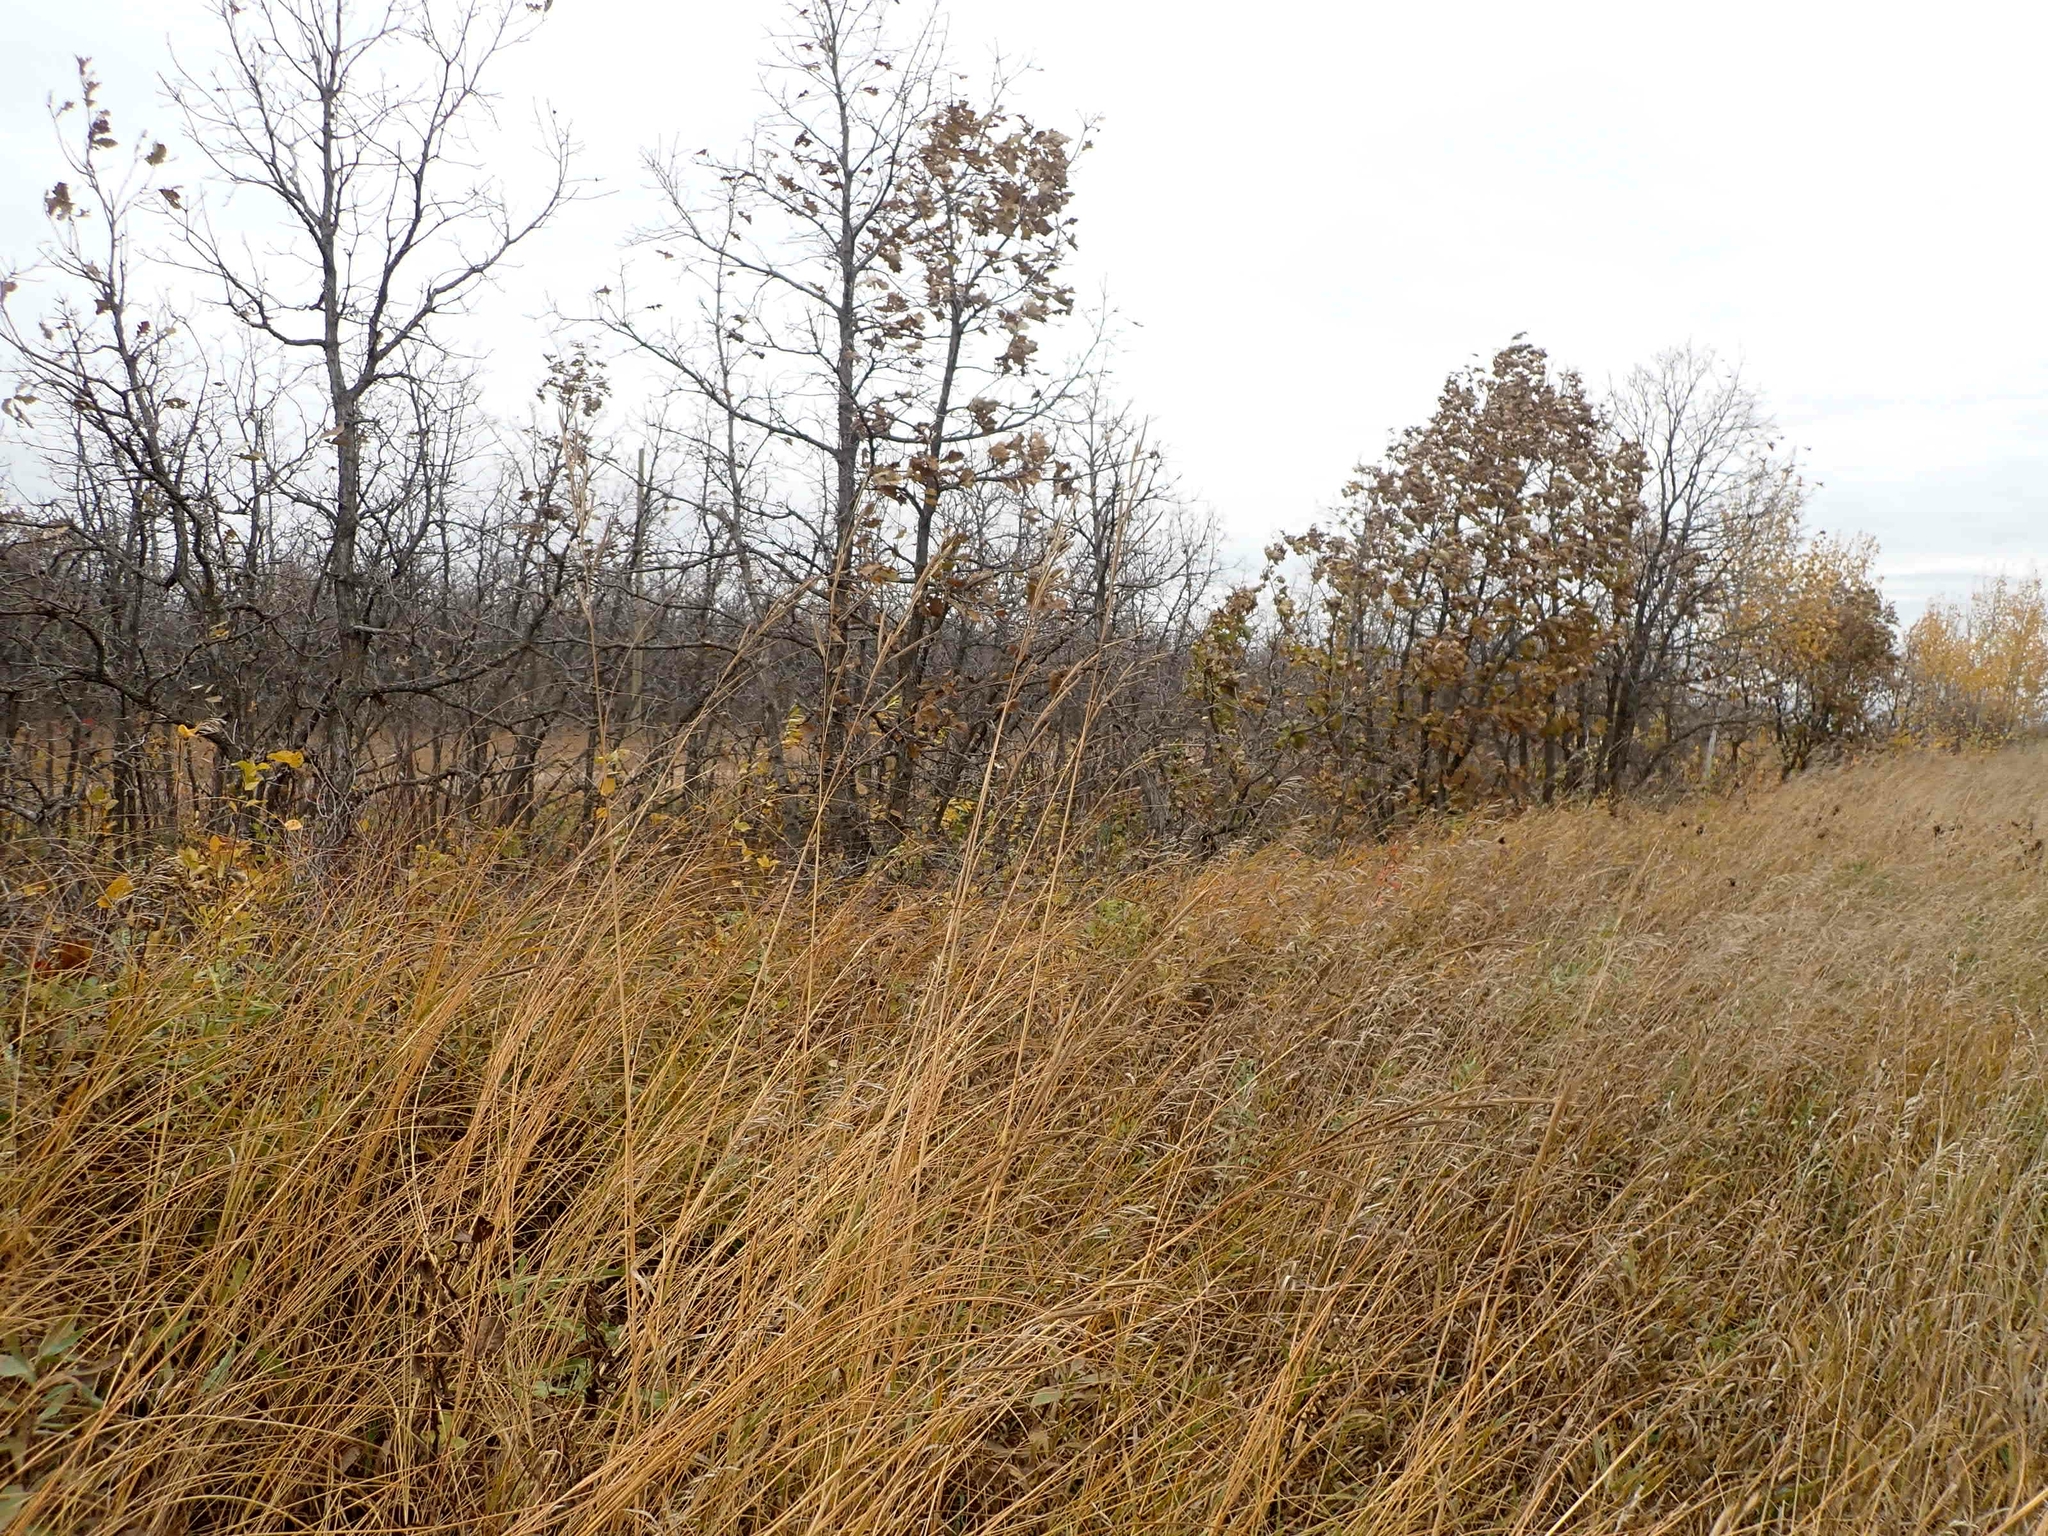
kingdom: Plantae
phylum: Tracheophyta
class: Liliopsida
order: Poales
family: Poaceae
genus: Sporobolus
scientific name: Sporobolus michauxianus
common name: Freshwater cordgrass
